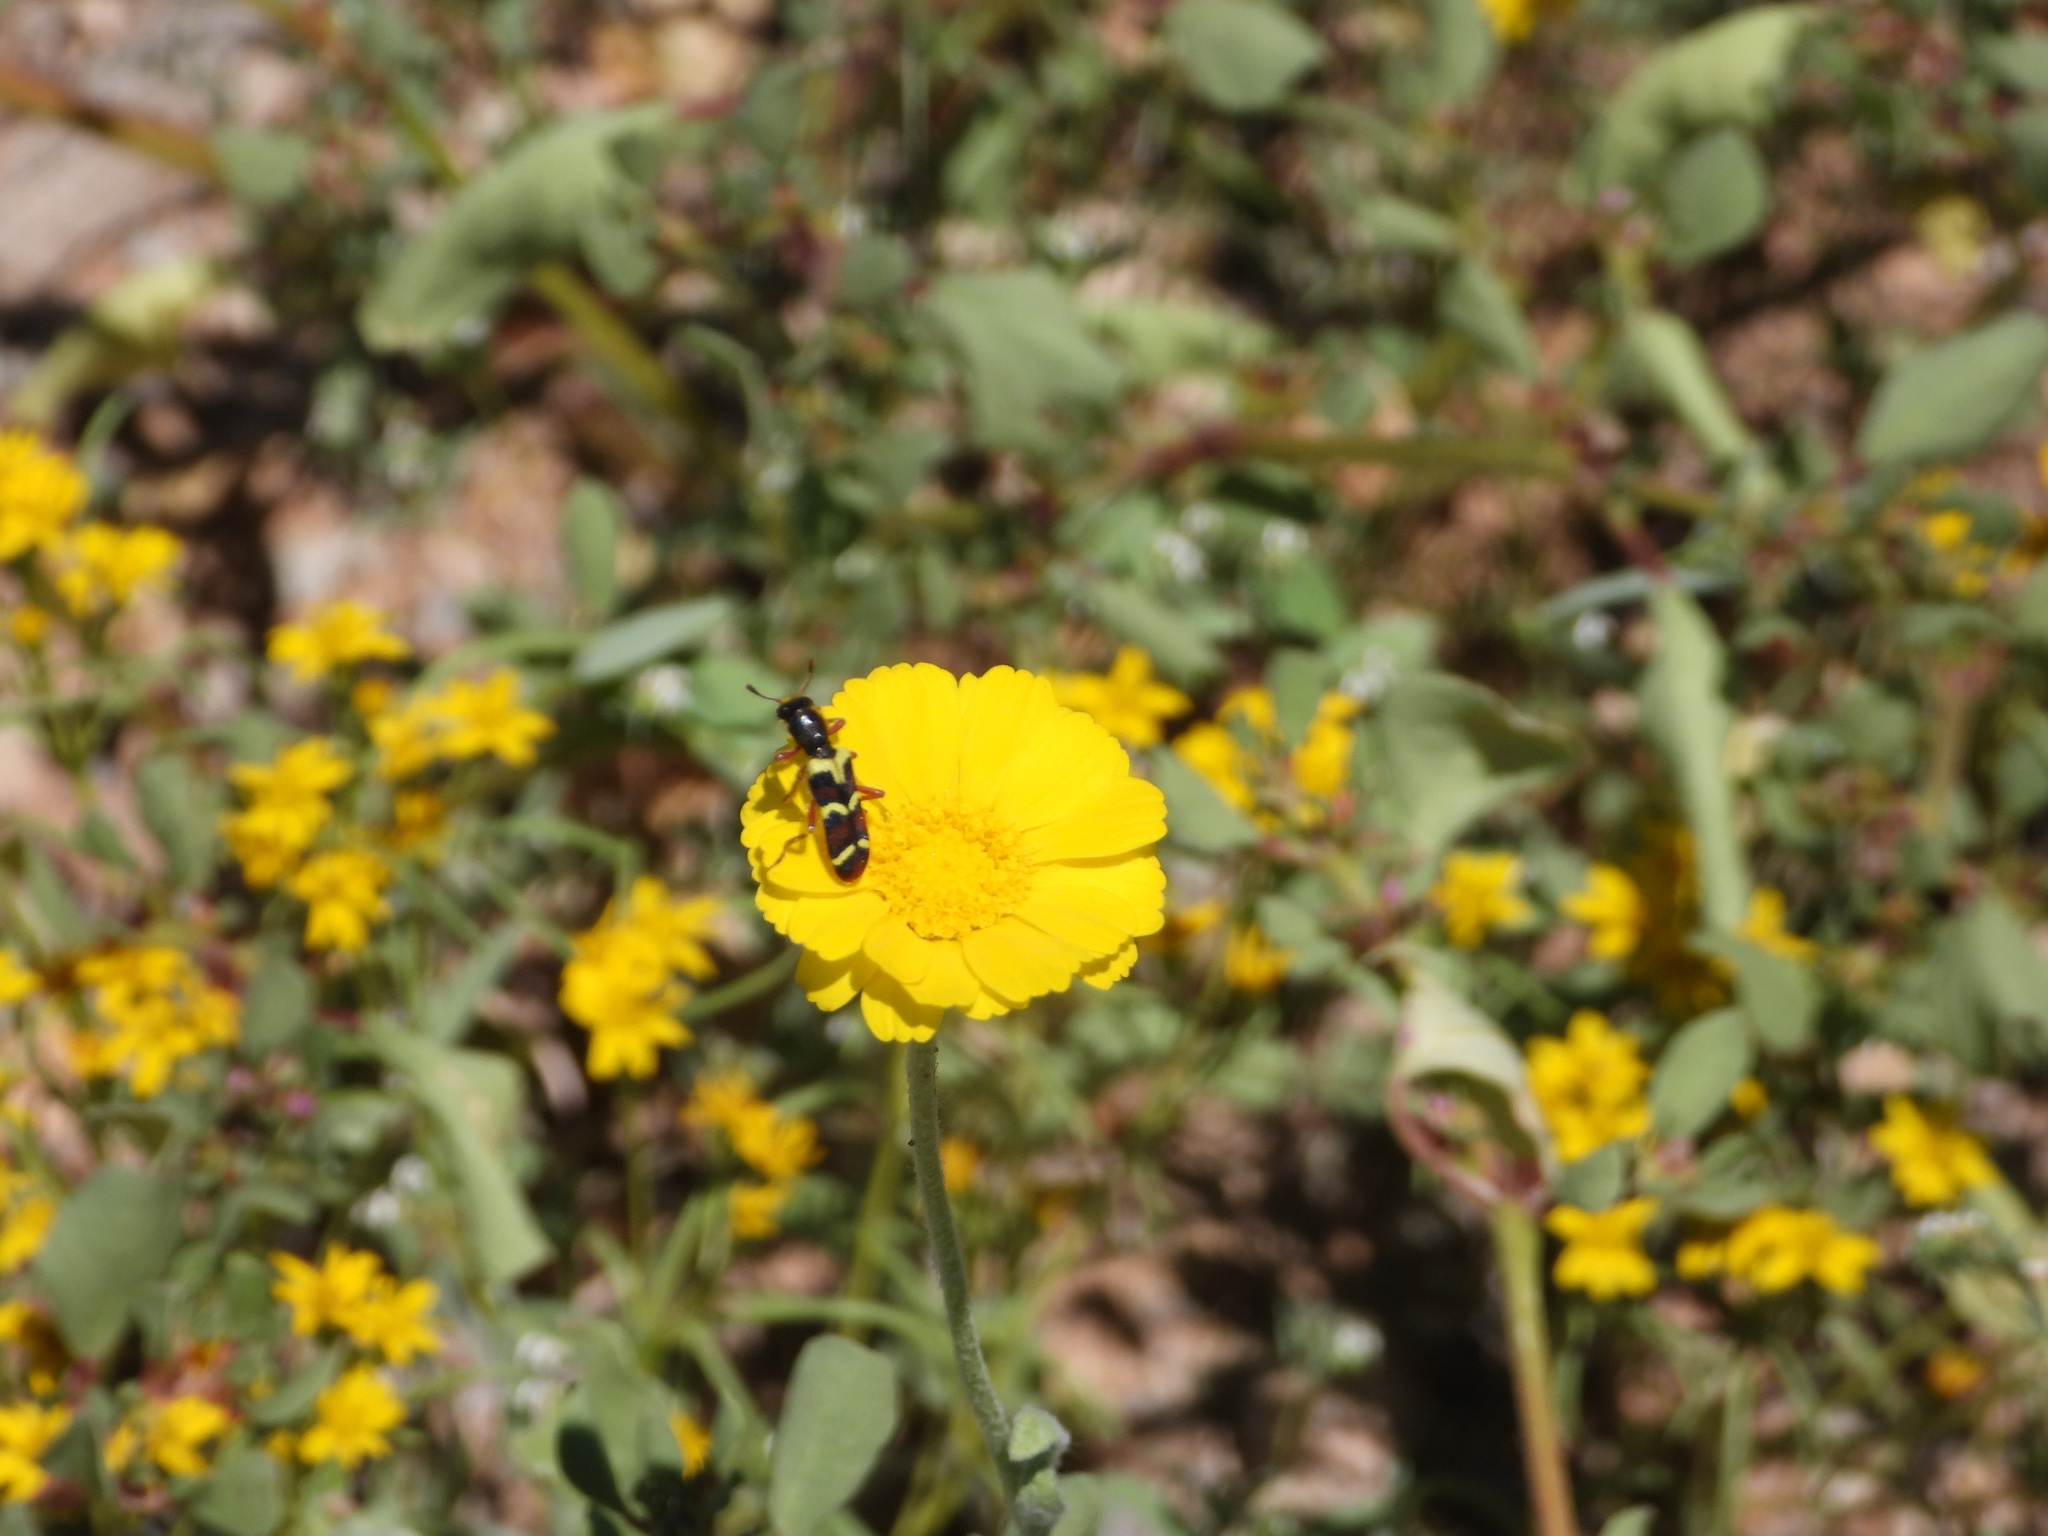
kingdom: Animalia
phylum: Arthropoda
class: Insecta
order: Coleoptera
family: Cleridae
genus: Trichodes
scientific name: Trichodes peninsularis
